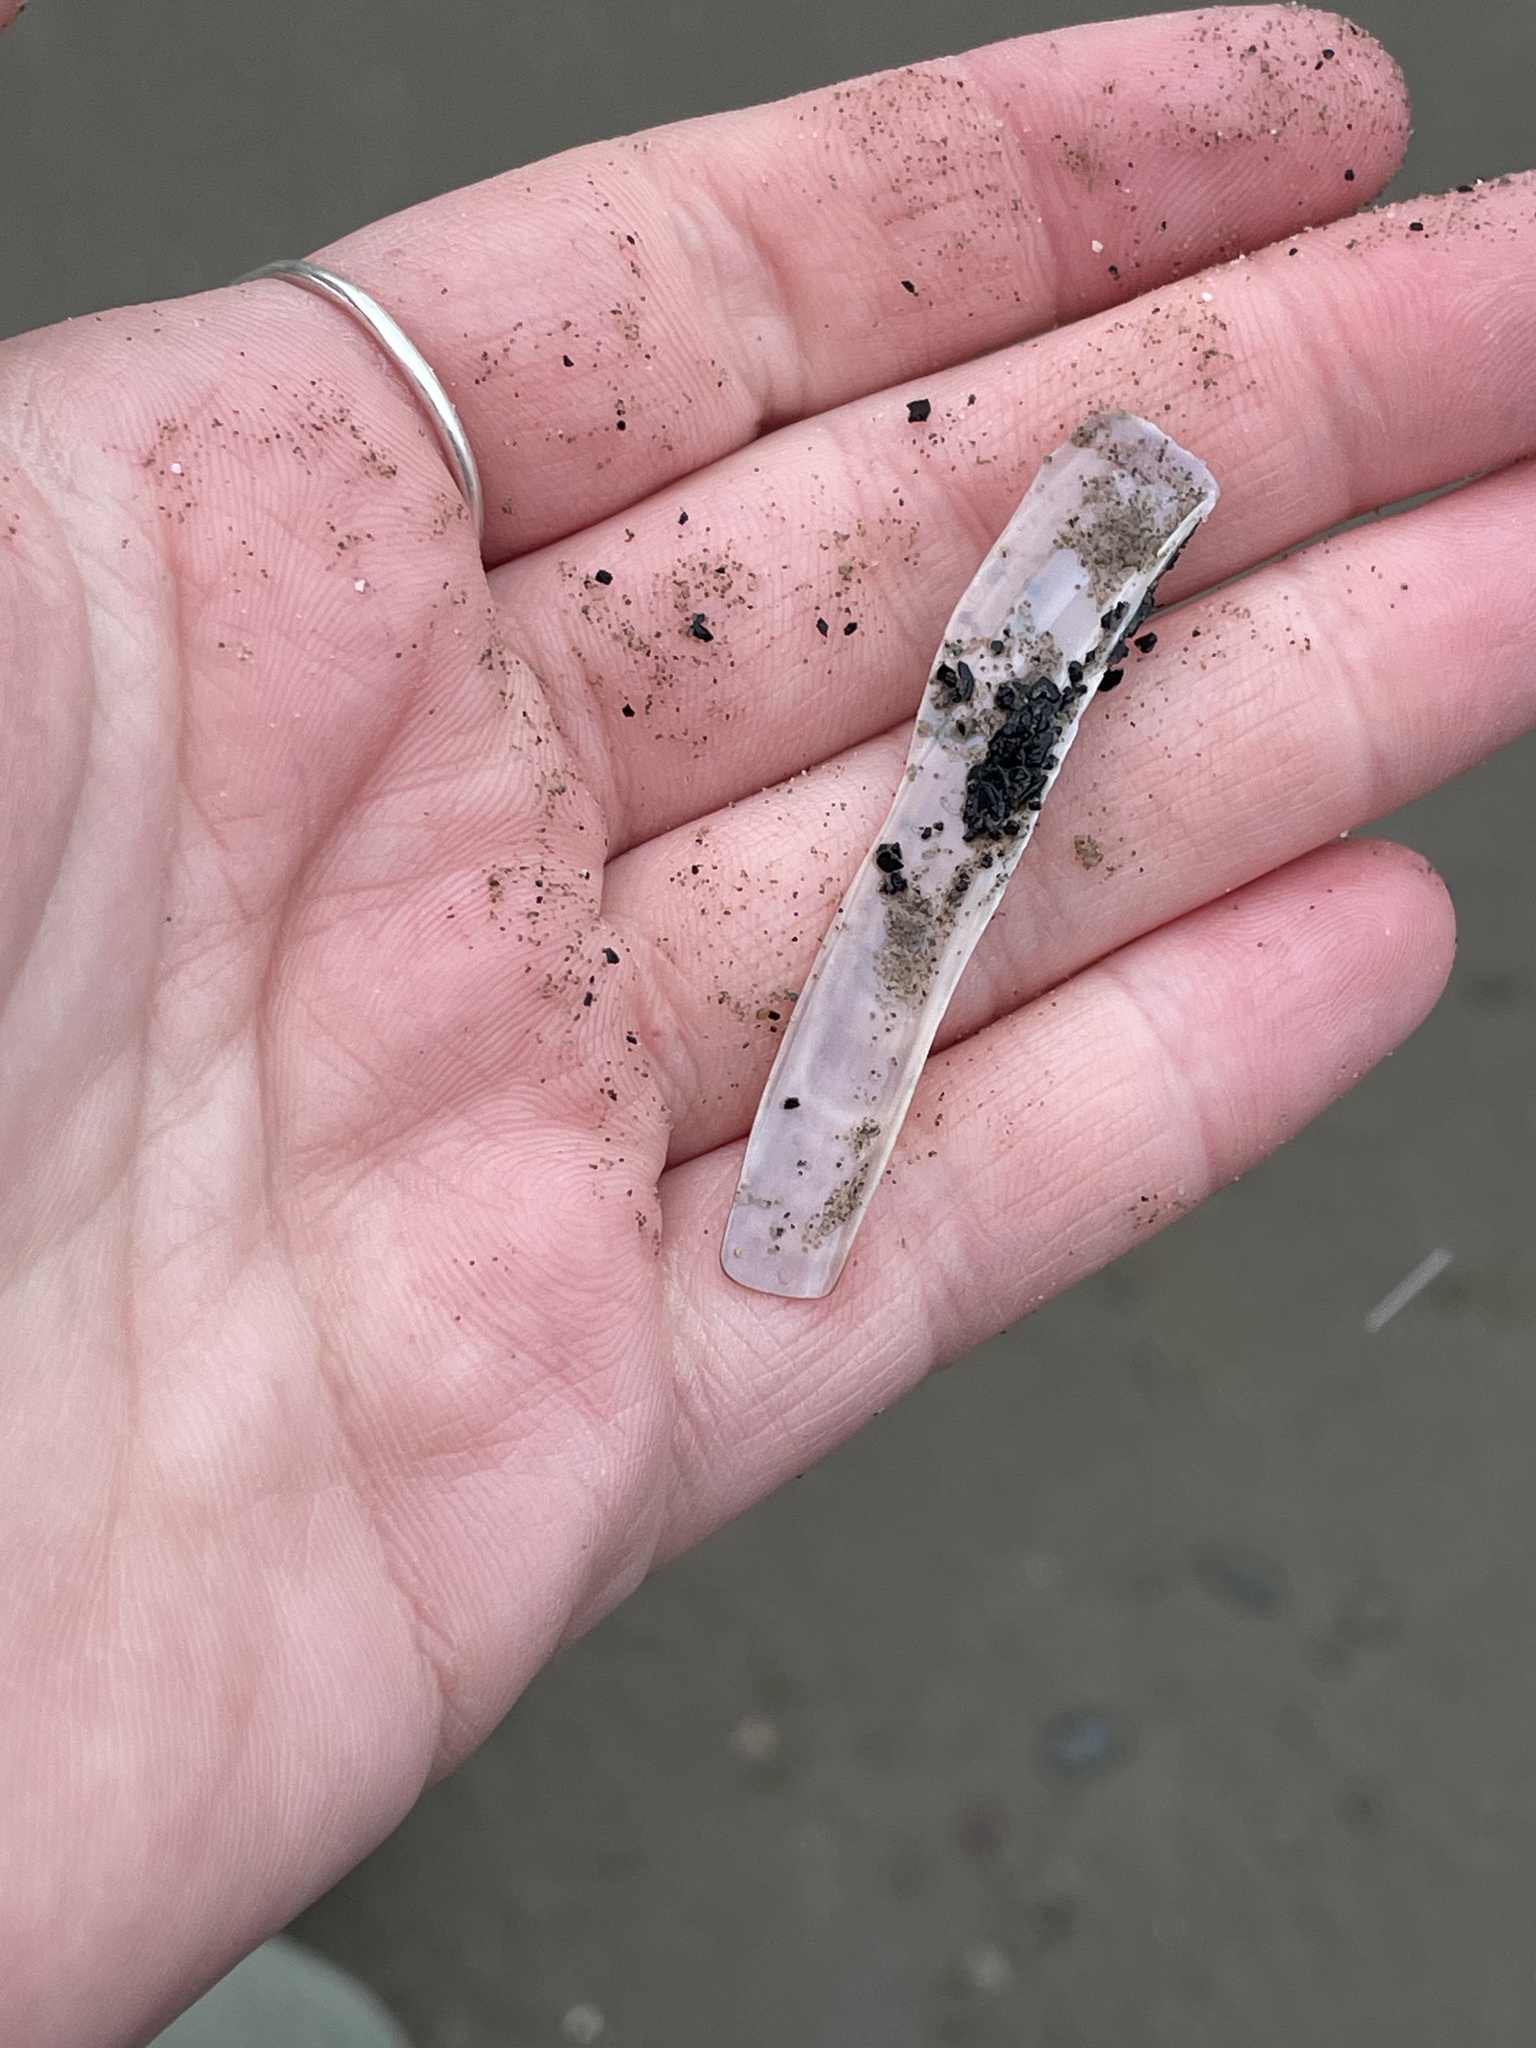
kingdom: Animalia
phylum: Mollusca
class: Bivalvia
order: Adapedonta
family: Pharidae
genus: Ensis
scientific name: Ensis leei
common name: American jack knife clam
